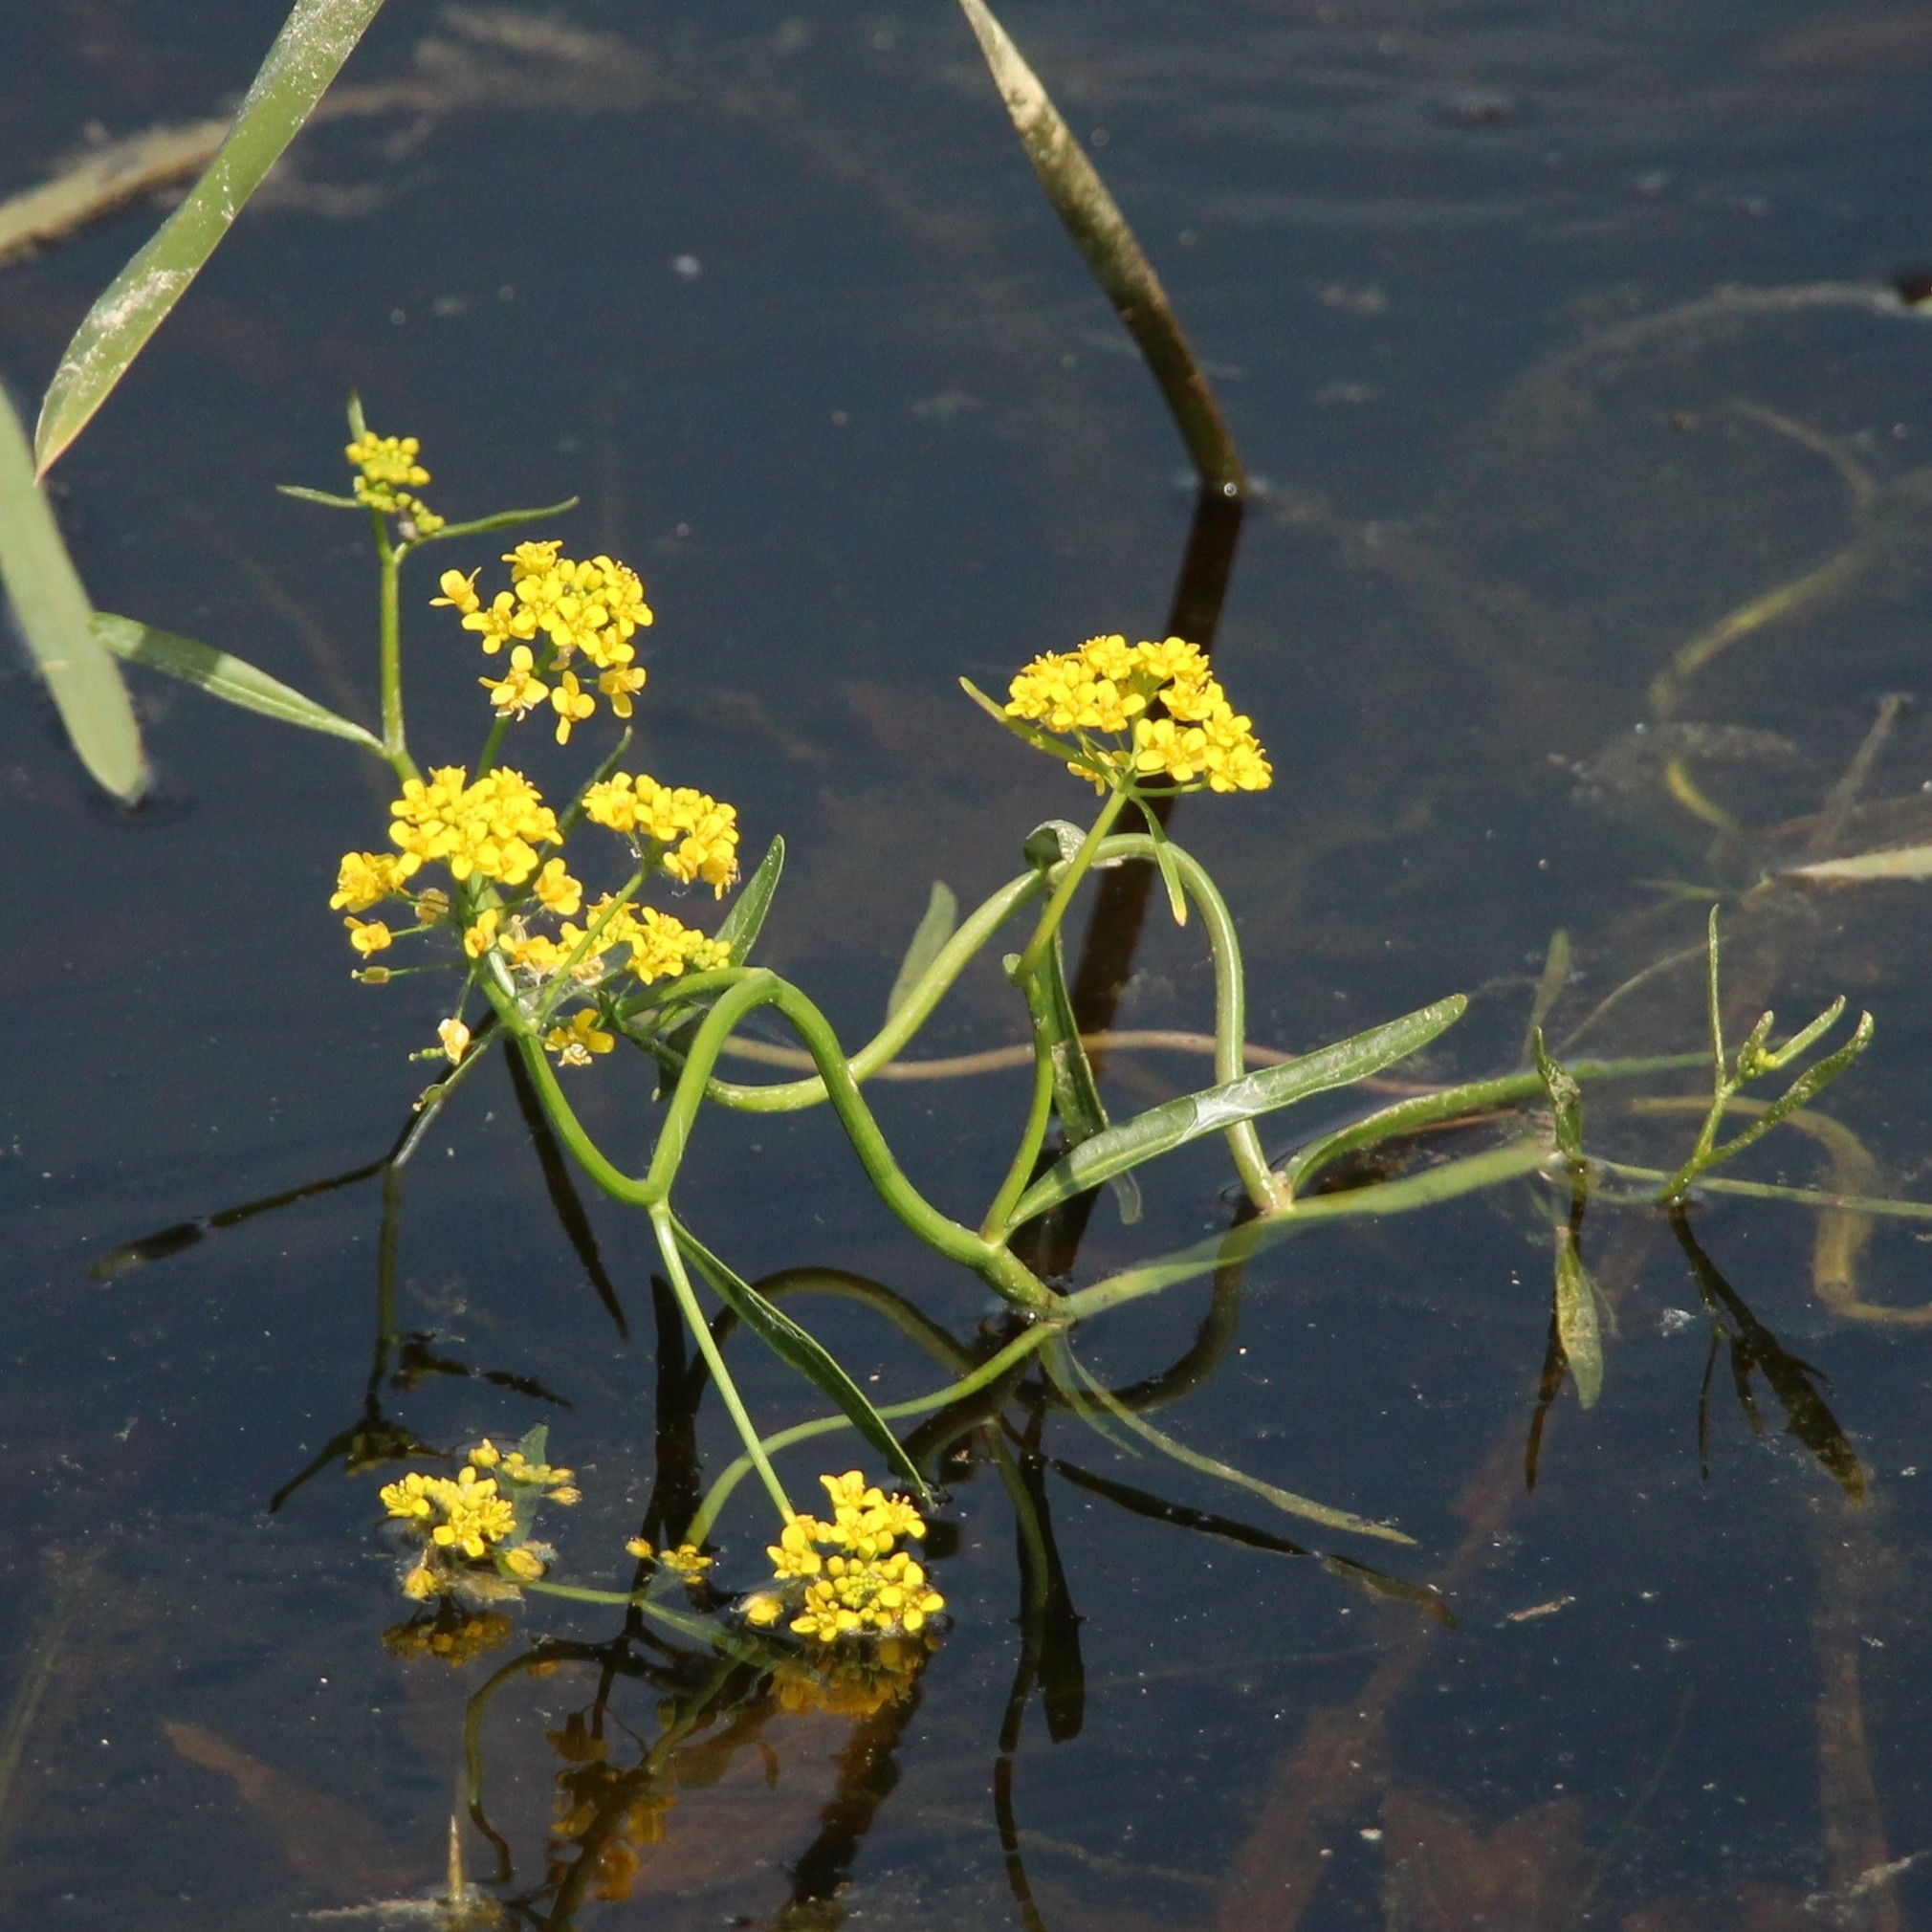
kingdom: Plantae
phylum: Tracheophyta
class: Magnoliopsida
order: Brassicales
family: Brassicaceae
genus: Rorippa
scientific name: Rorippa amphibia
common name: Great yellow-cress
